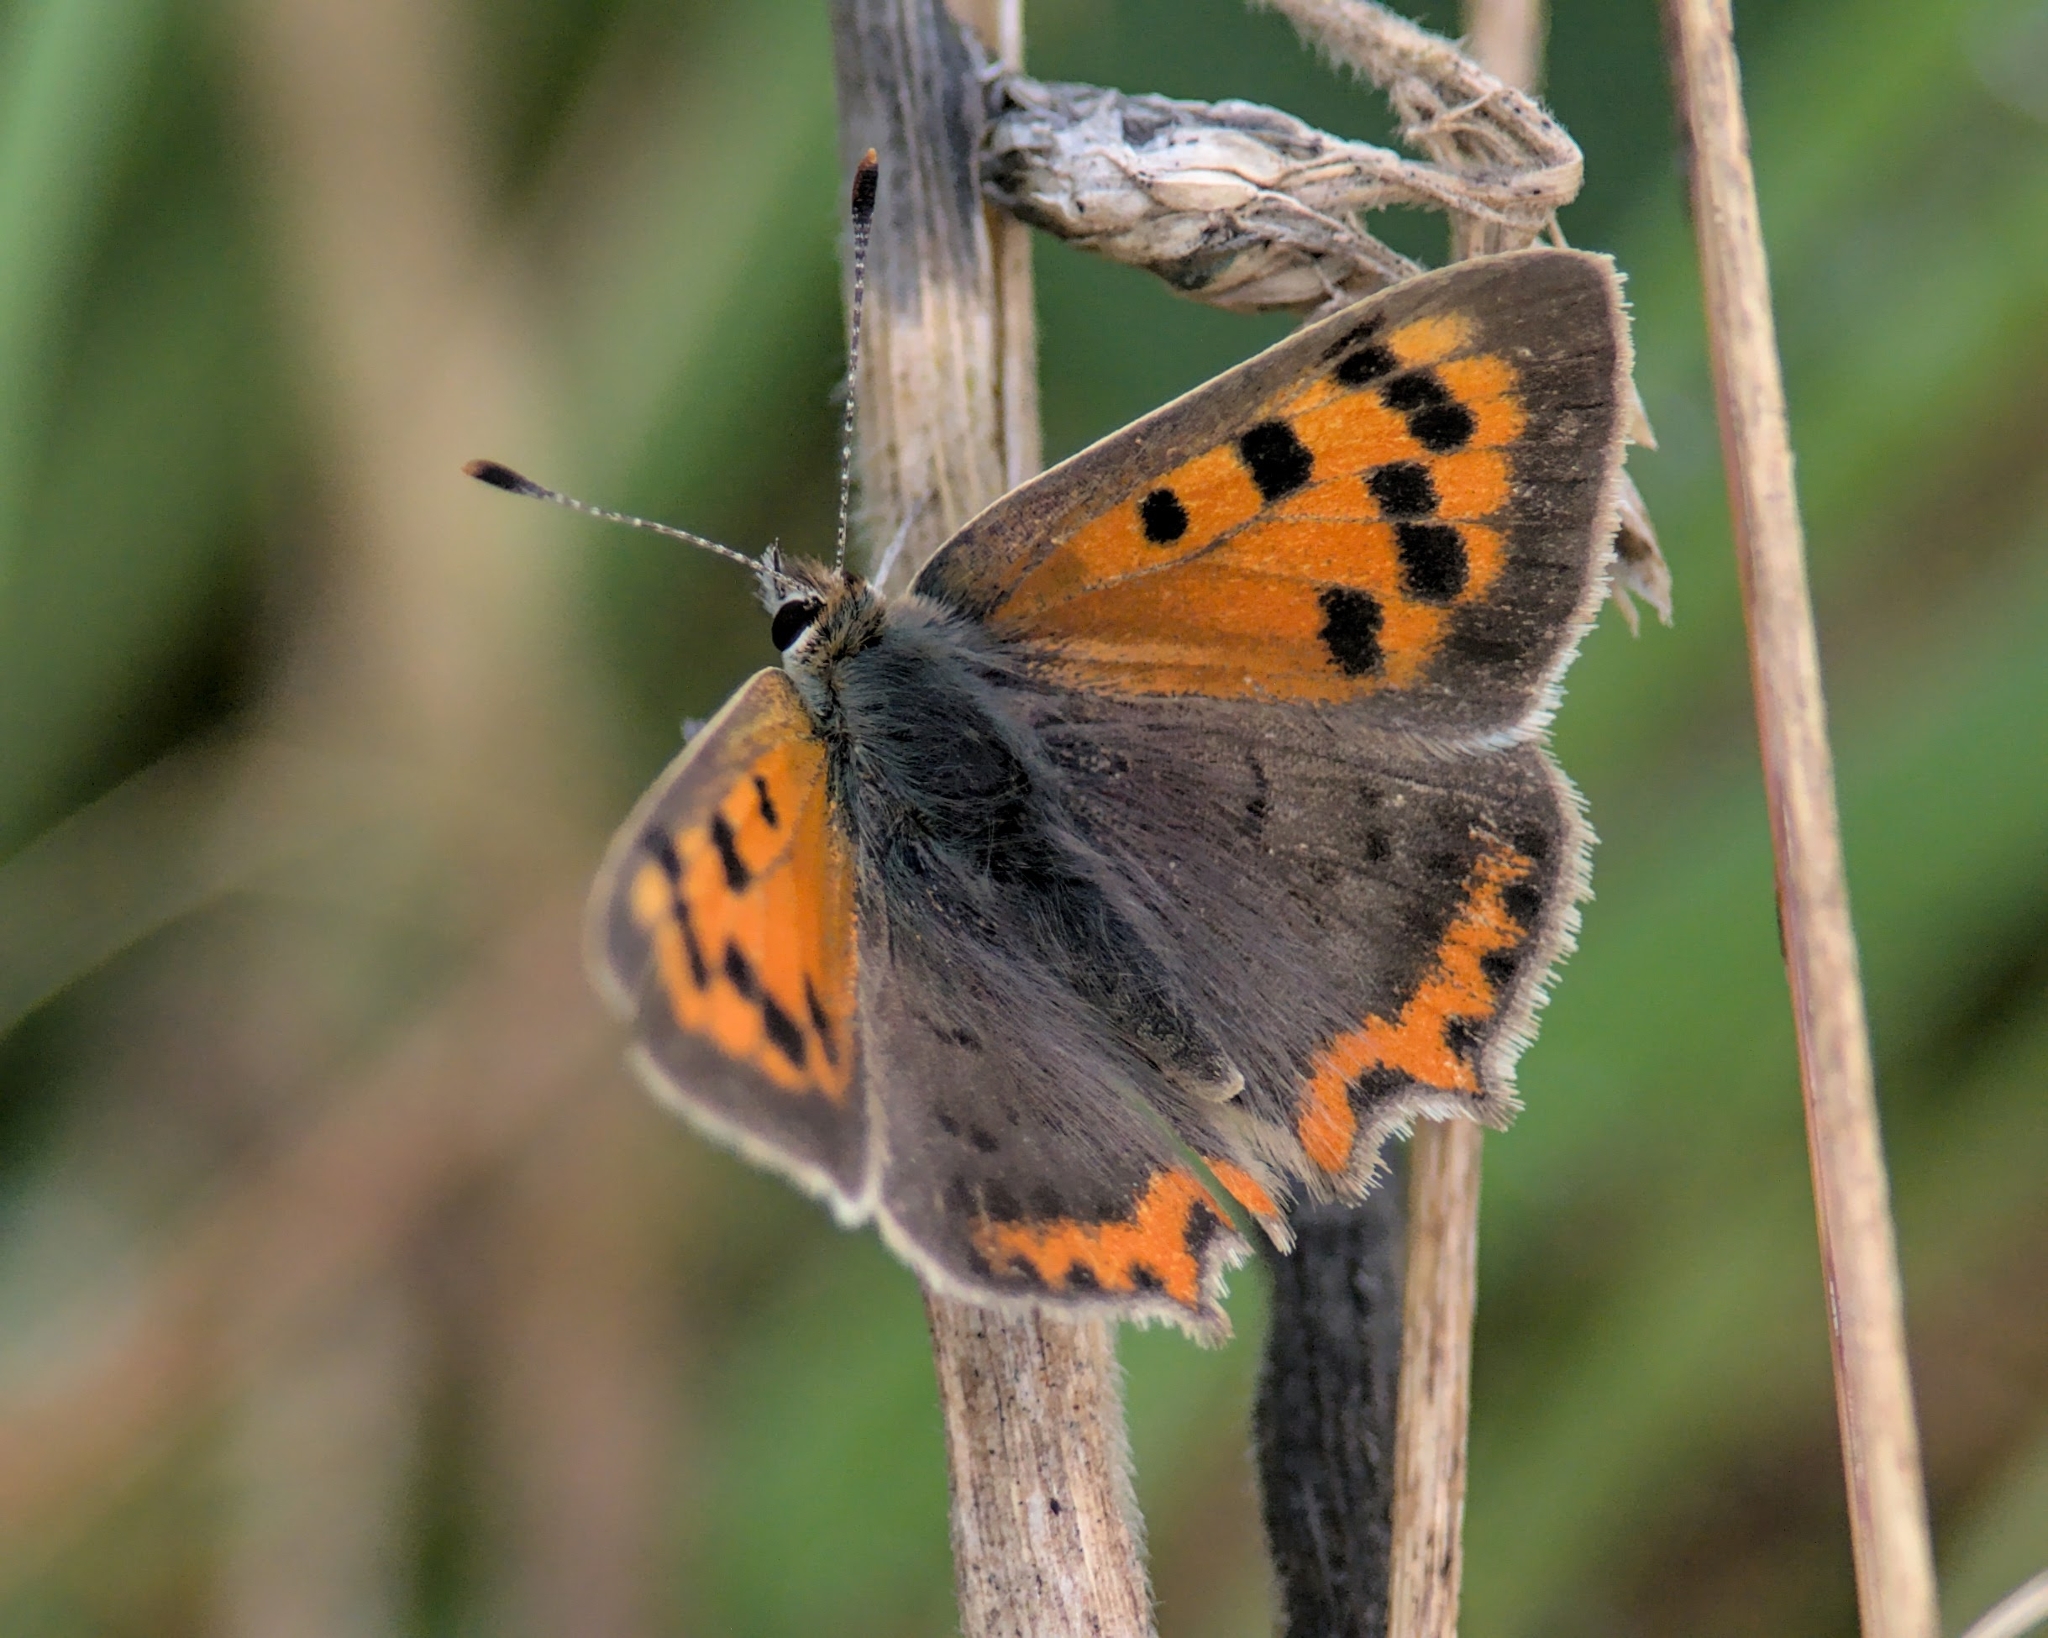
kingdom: Animalia
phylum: Arthropoda
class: Insecta
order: Lepidoptera
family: Lycaenidae
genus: Lycaena
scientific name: Lycaena phlaeas
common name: Small copper
